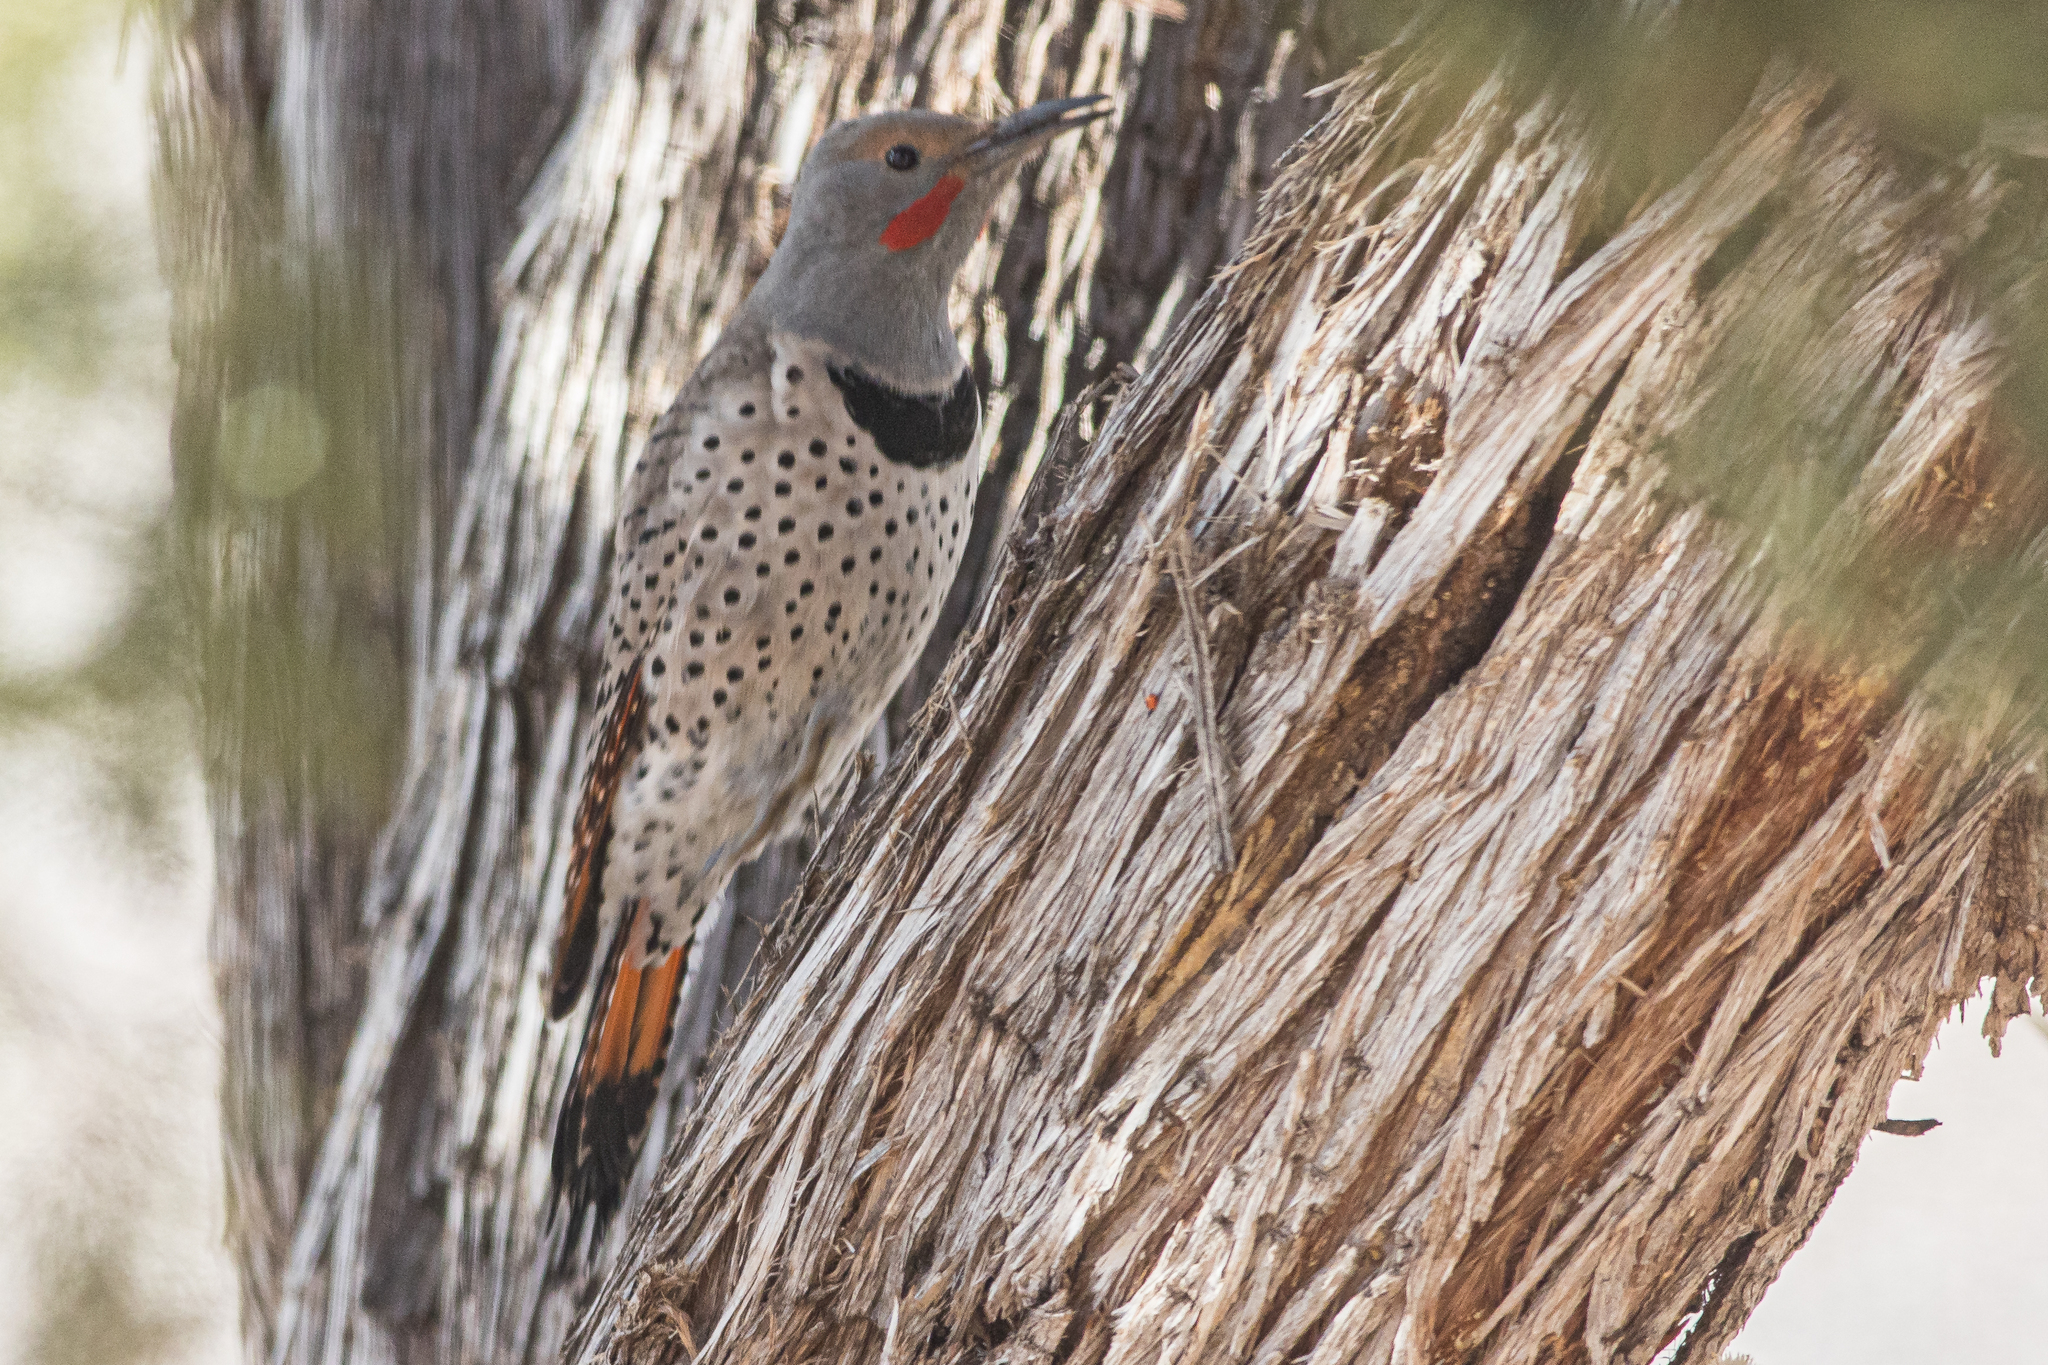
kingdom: Animalia
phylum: Chordata
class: Aves
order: Piciformes
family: Picidae
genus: Colaptes
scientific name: Colaptes auratus
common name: Northern flicker
